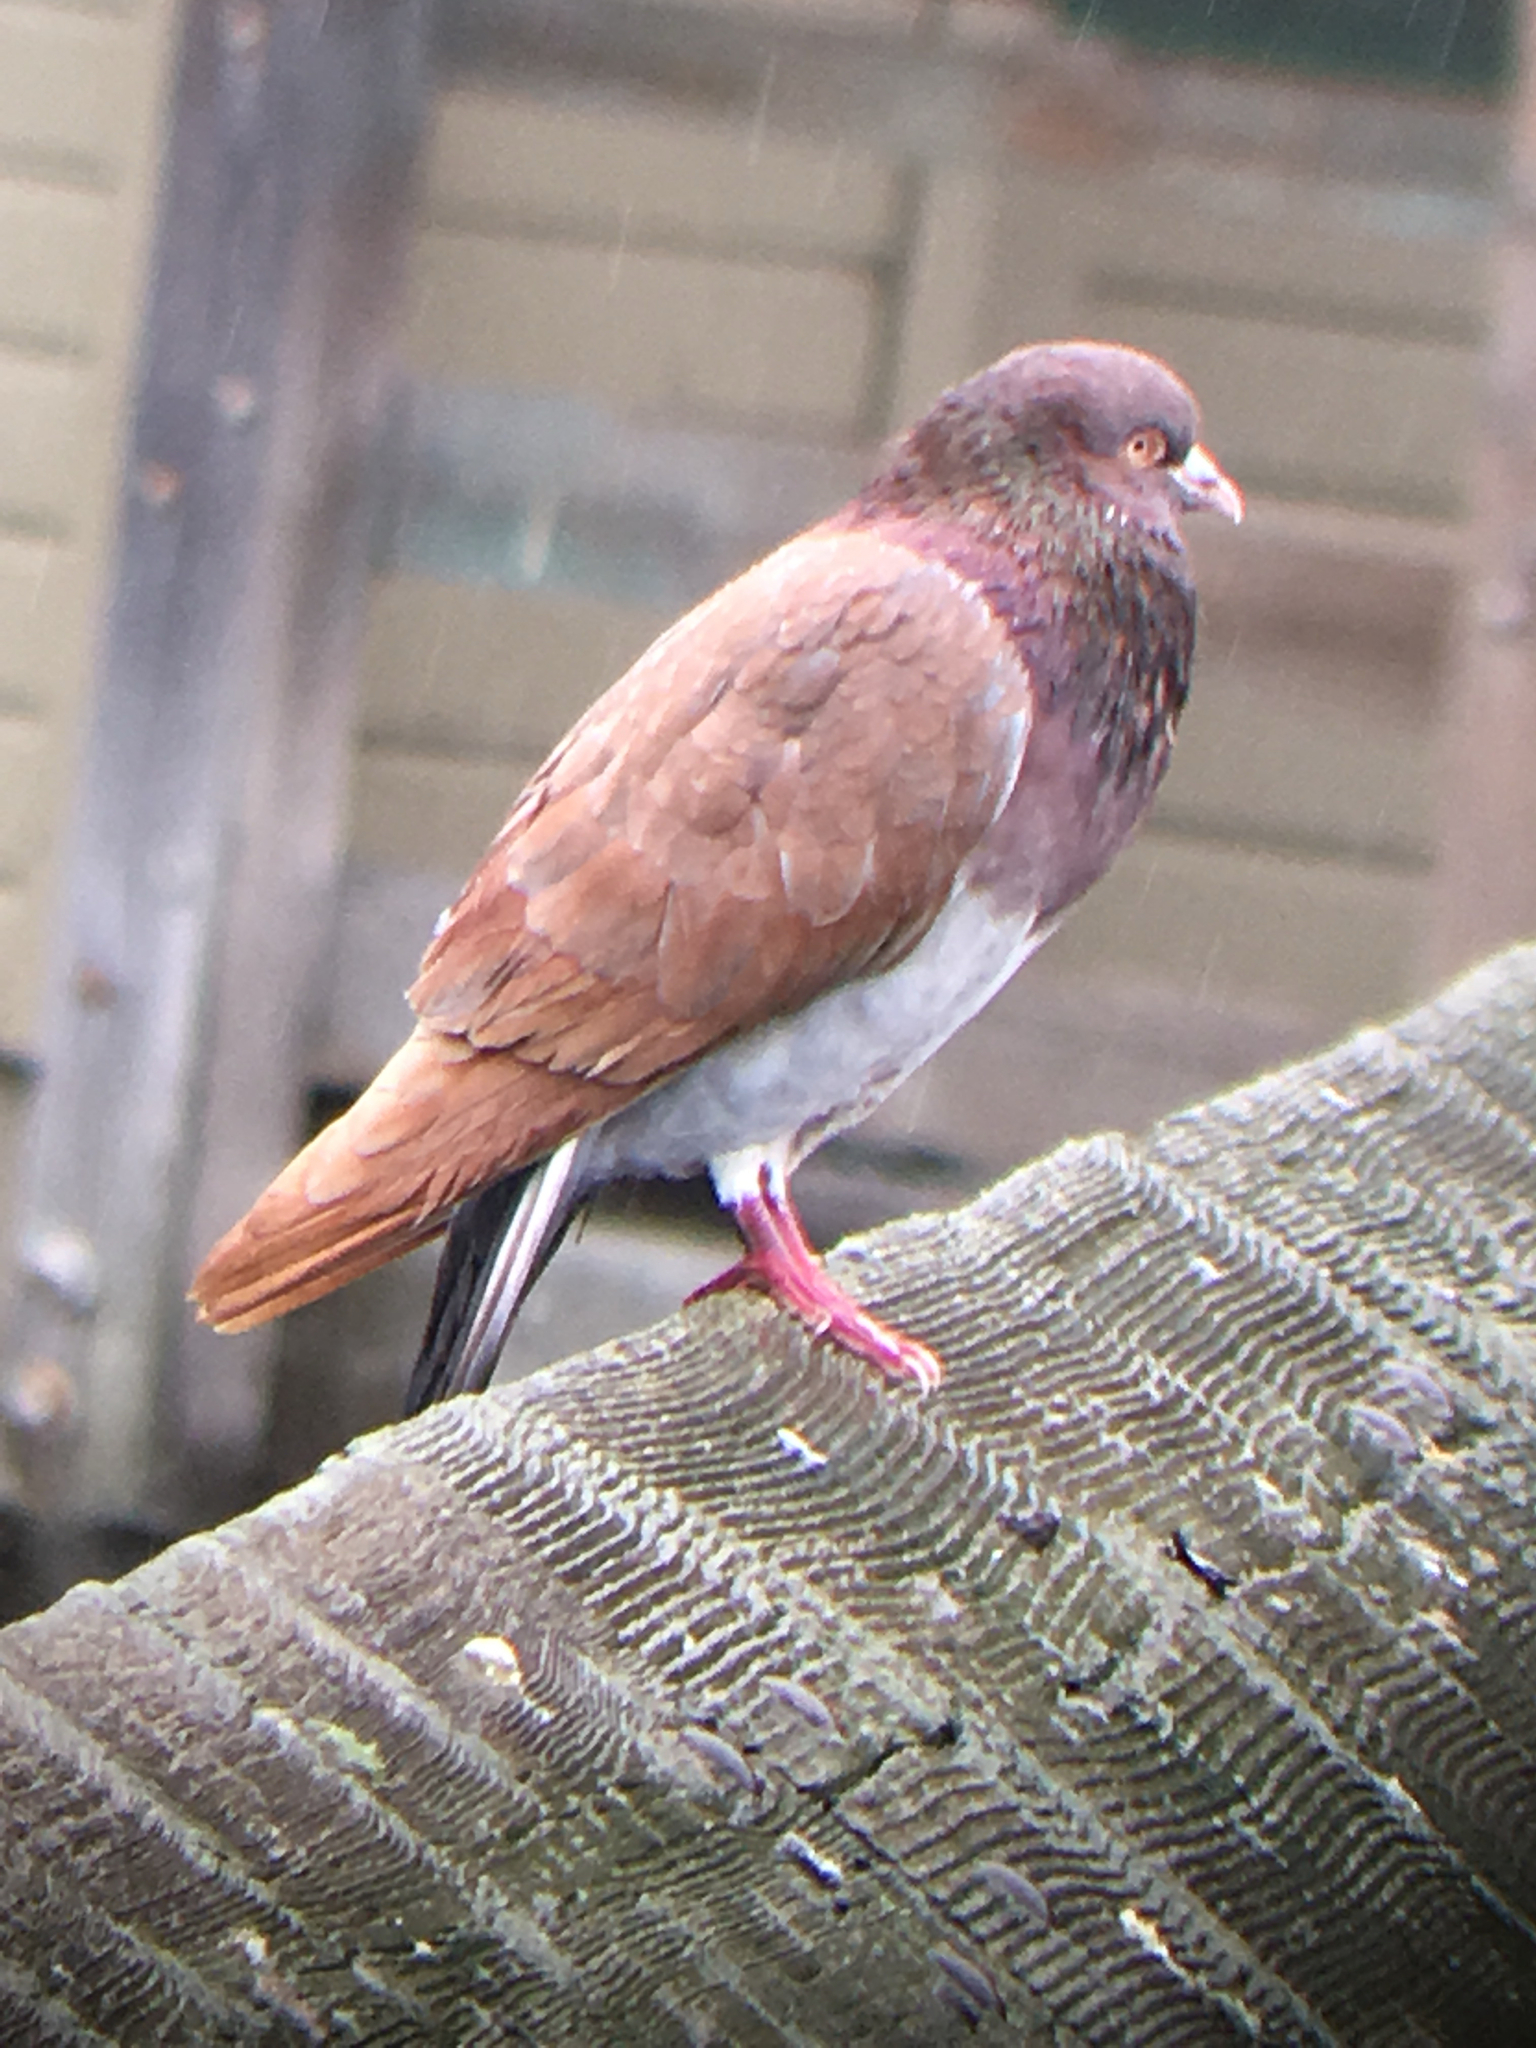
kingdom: Animalia
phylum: Chordata
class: Aves
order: Columbiformes
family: Columbidae
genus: Columba
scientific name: Columba livia
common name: Rock pigeon
